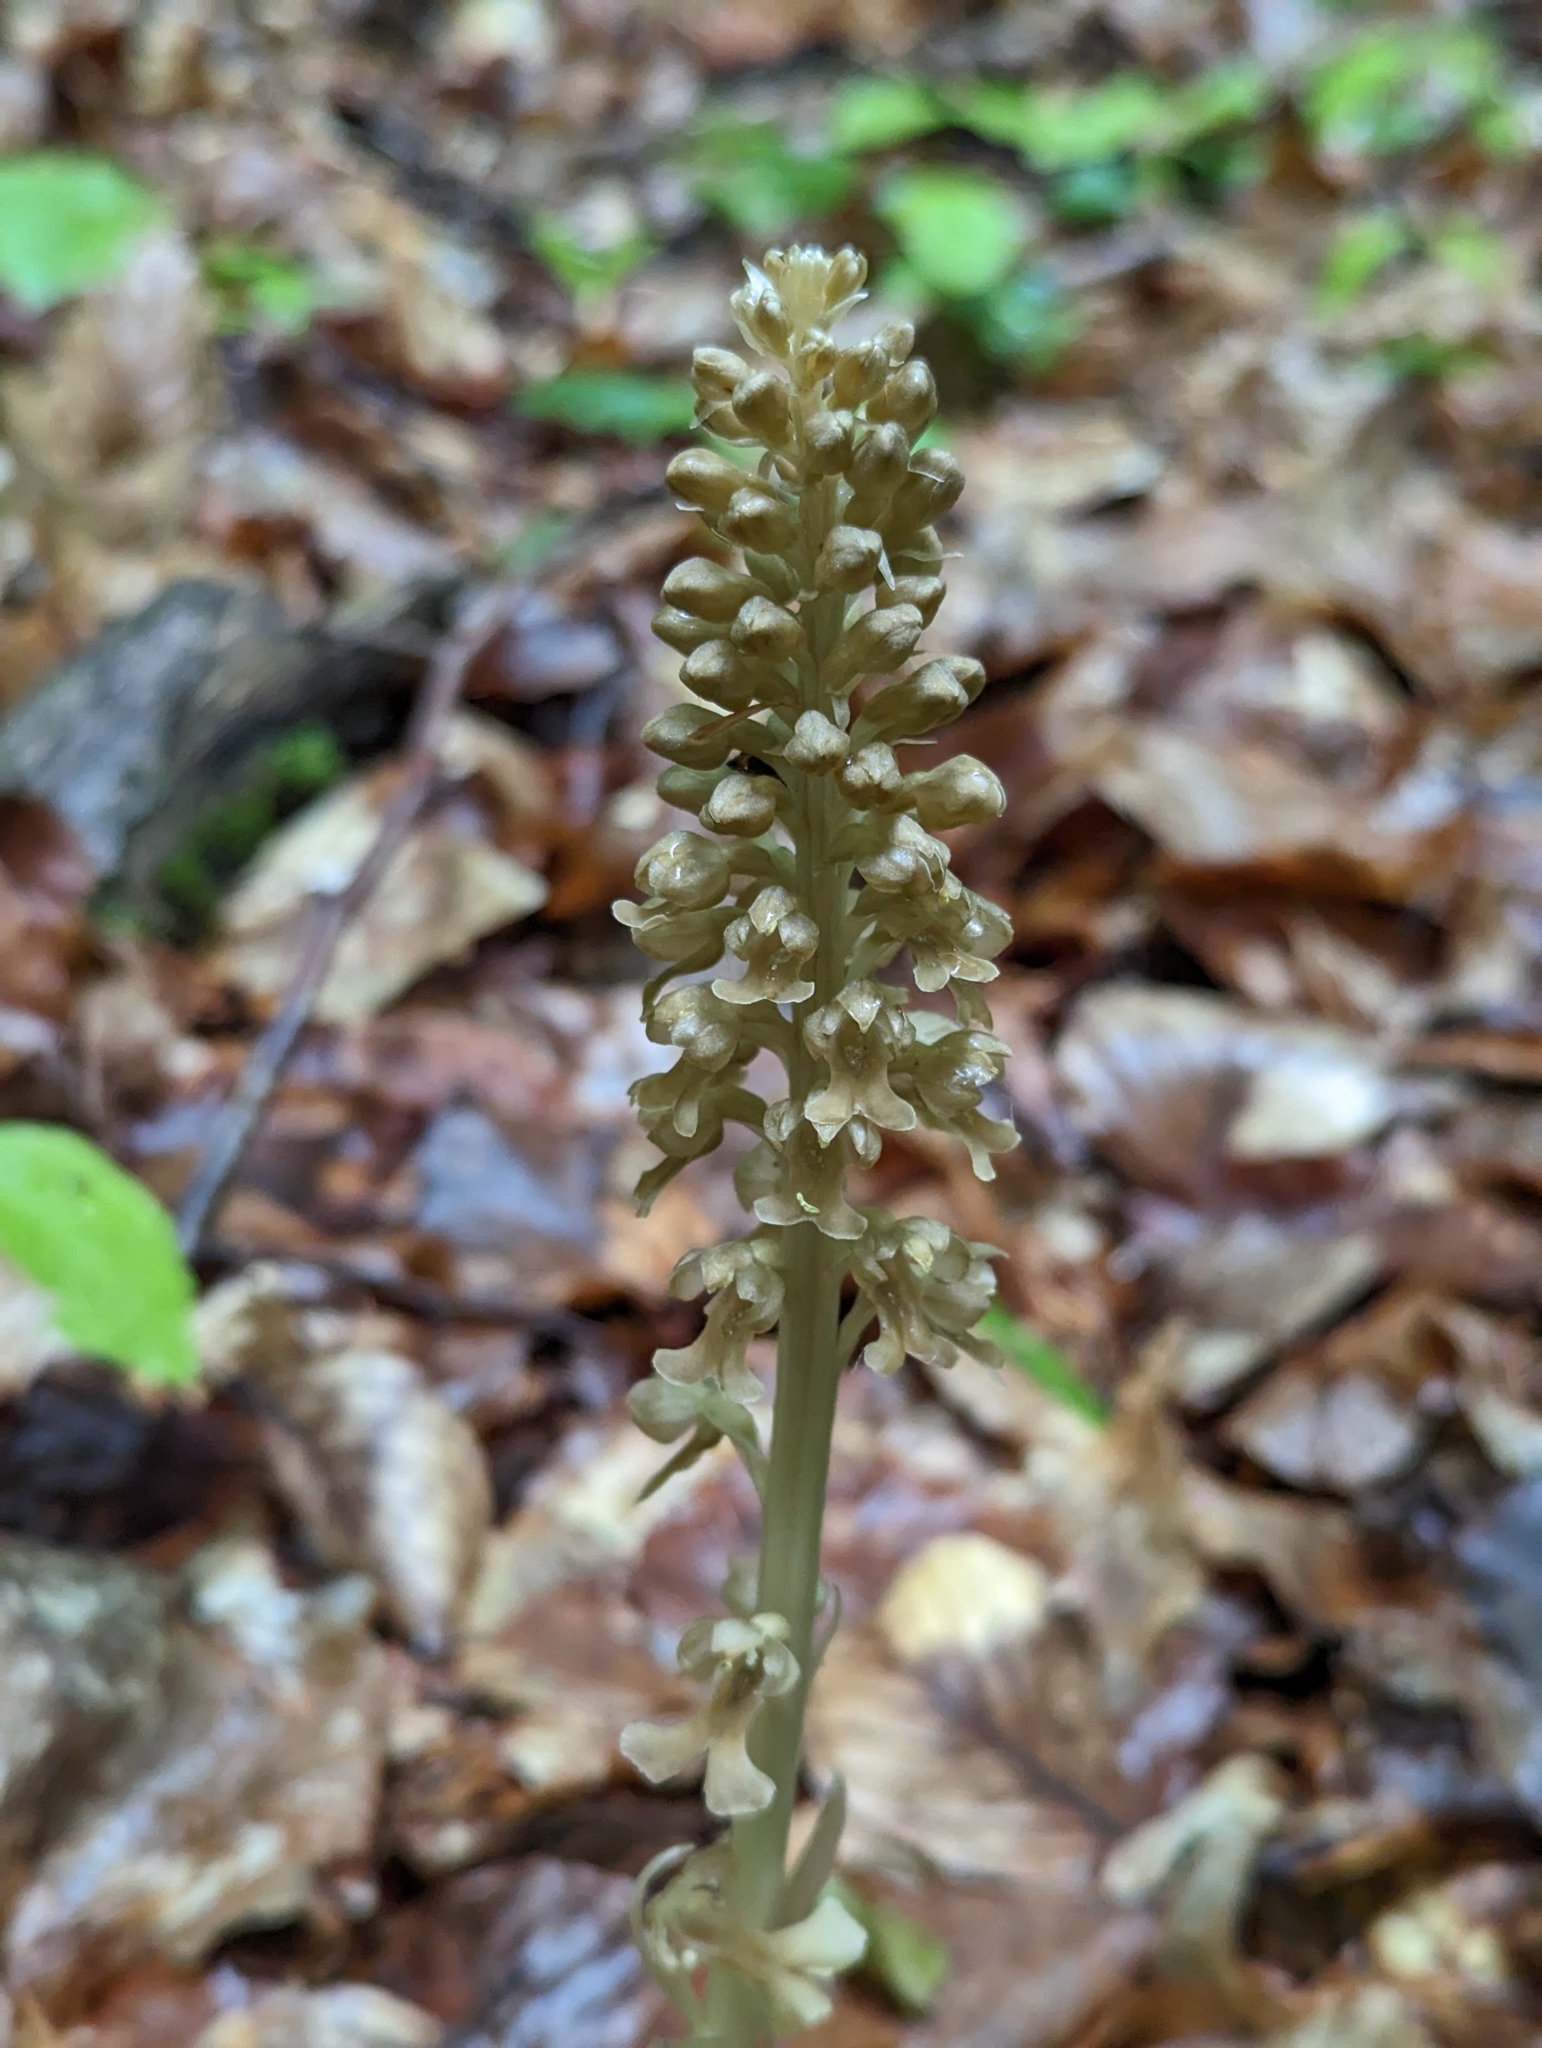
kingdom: Plantae
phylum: Tracheophyta
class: Liliopsida
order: Asparagales
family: Orchidaceae
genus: Neottia
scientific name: Neottia nidus-avis
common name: Bird's-nest orchid
